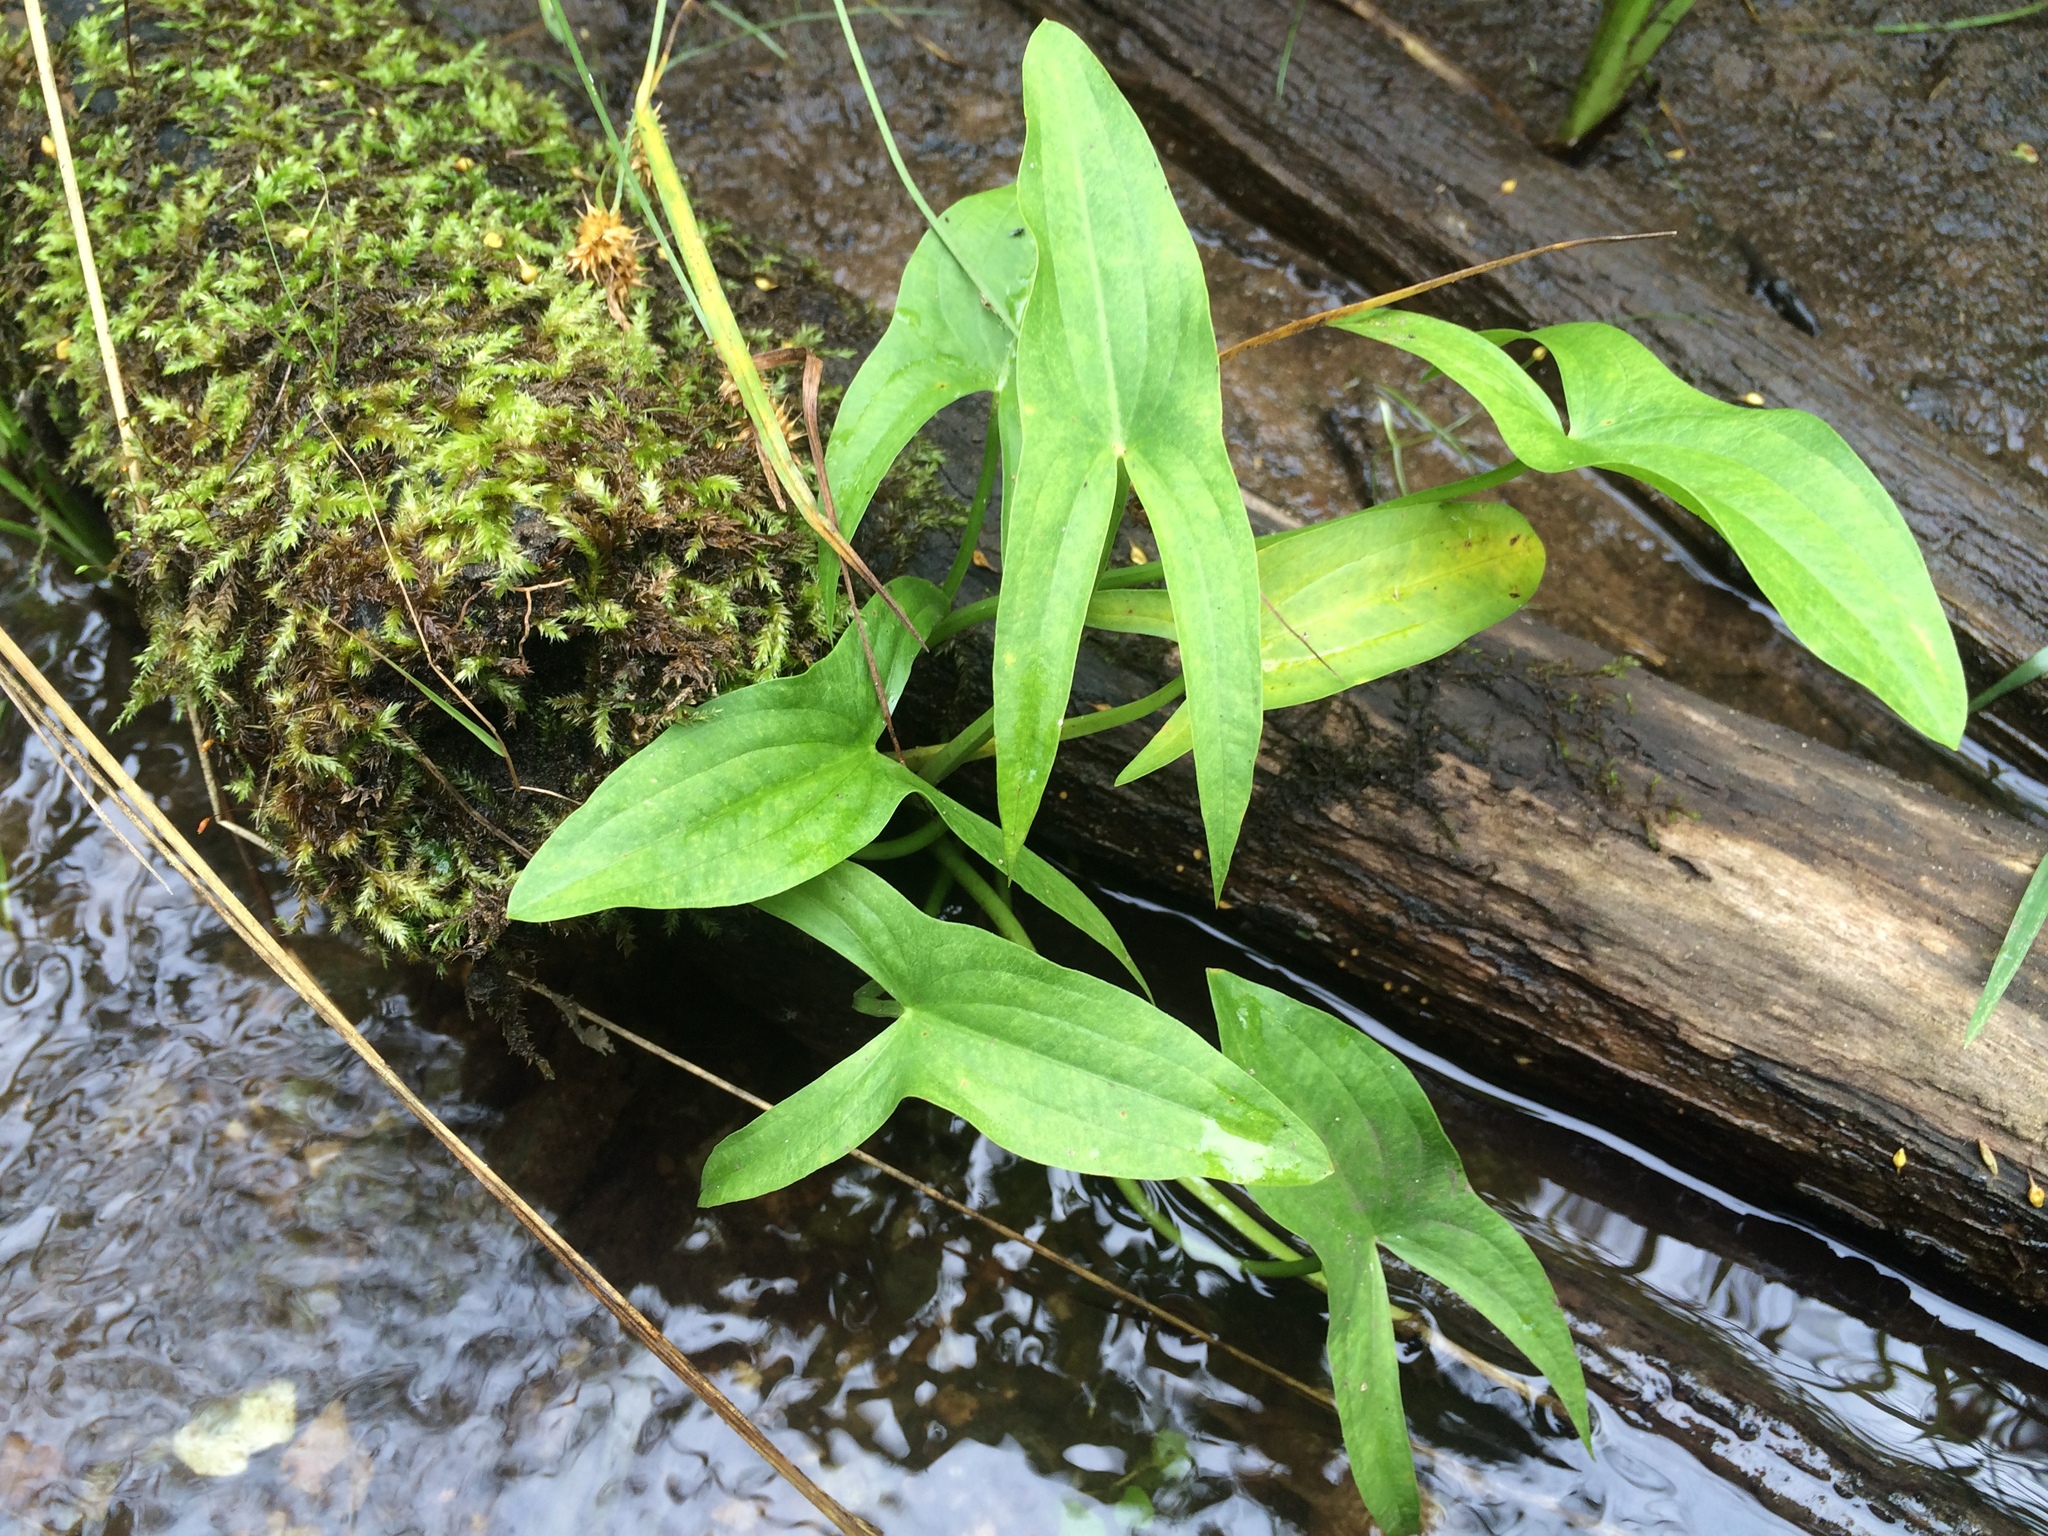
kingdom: Plantae
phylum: Tracheophyta
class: Liliopsida
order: Alismatales
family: Alismataceae
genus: Sagittaria
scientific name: Sagittaria latifolia
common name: Duck-potato
